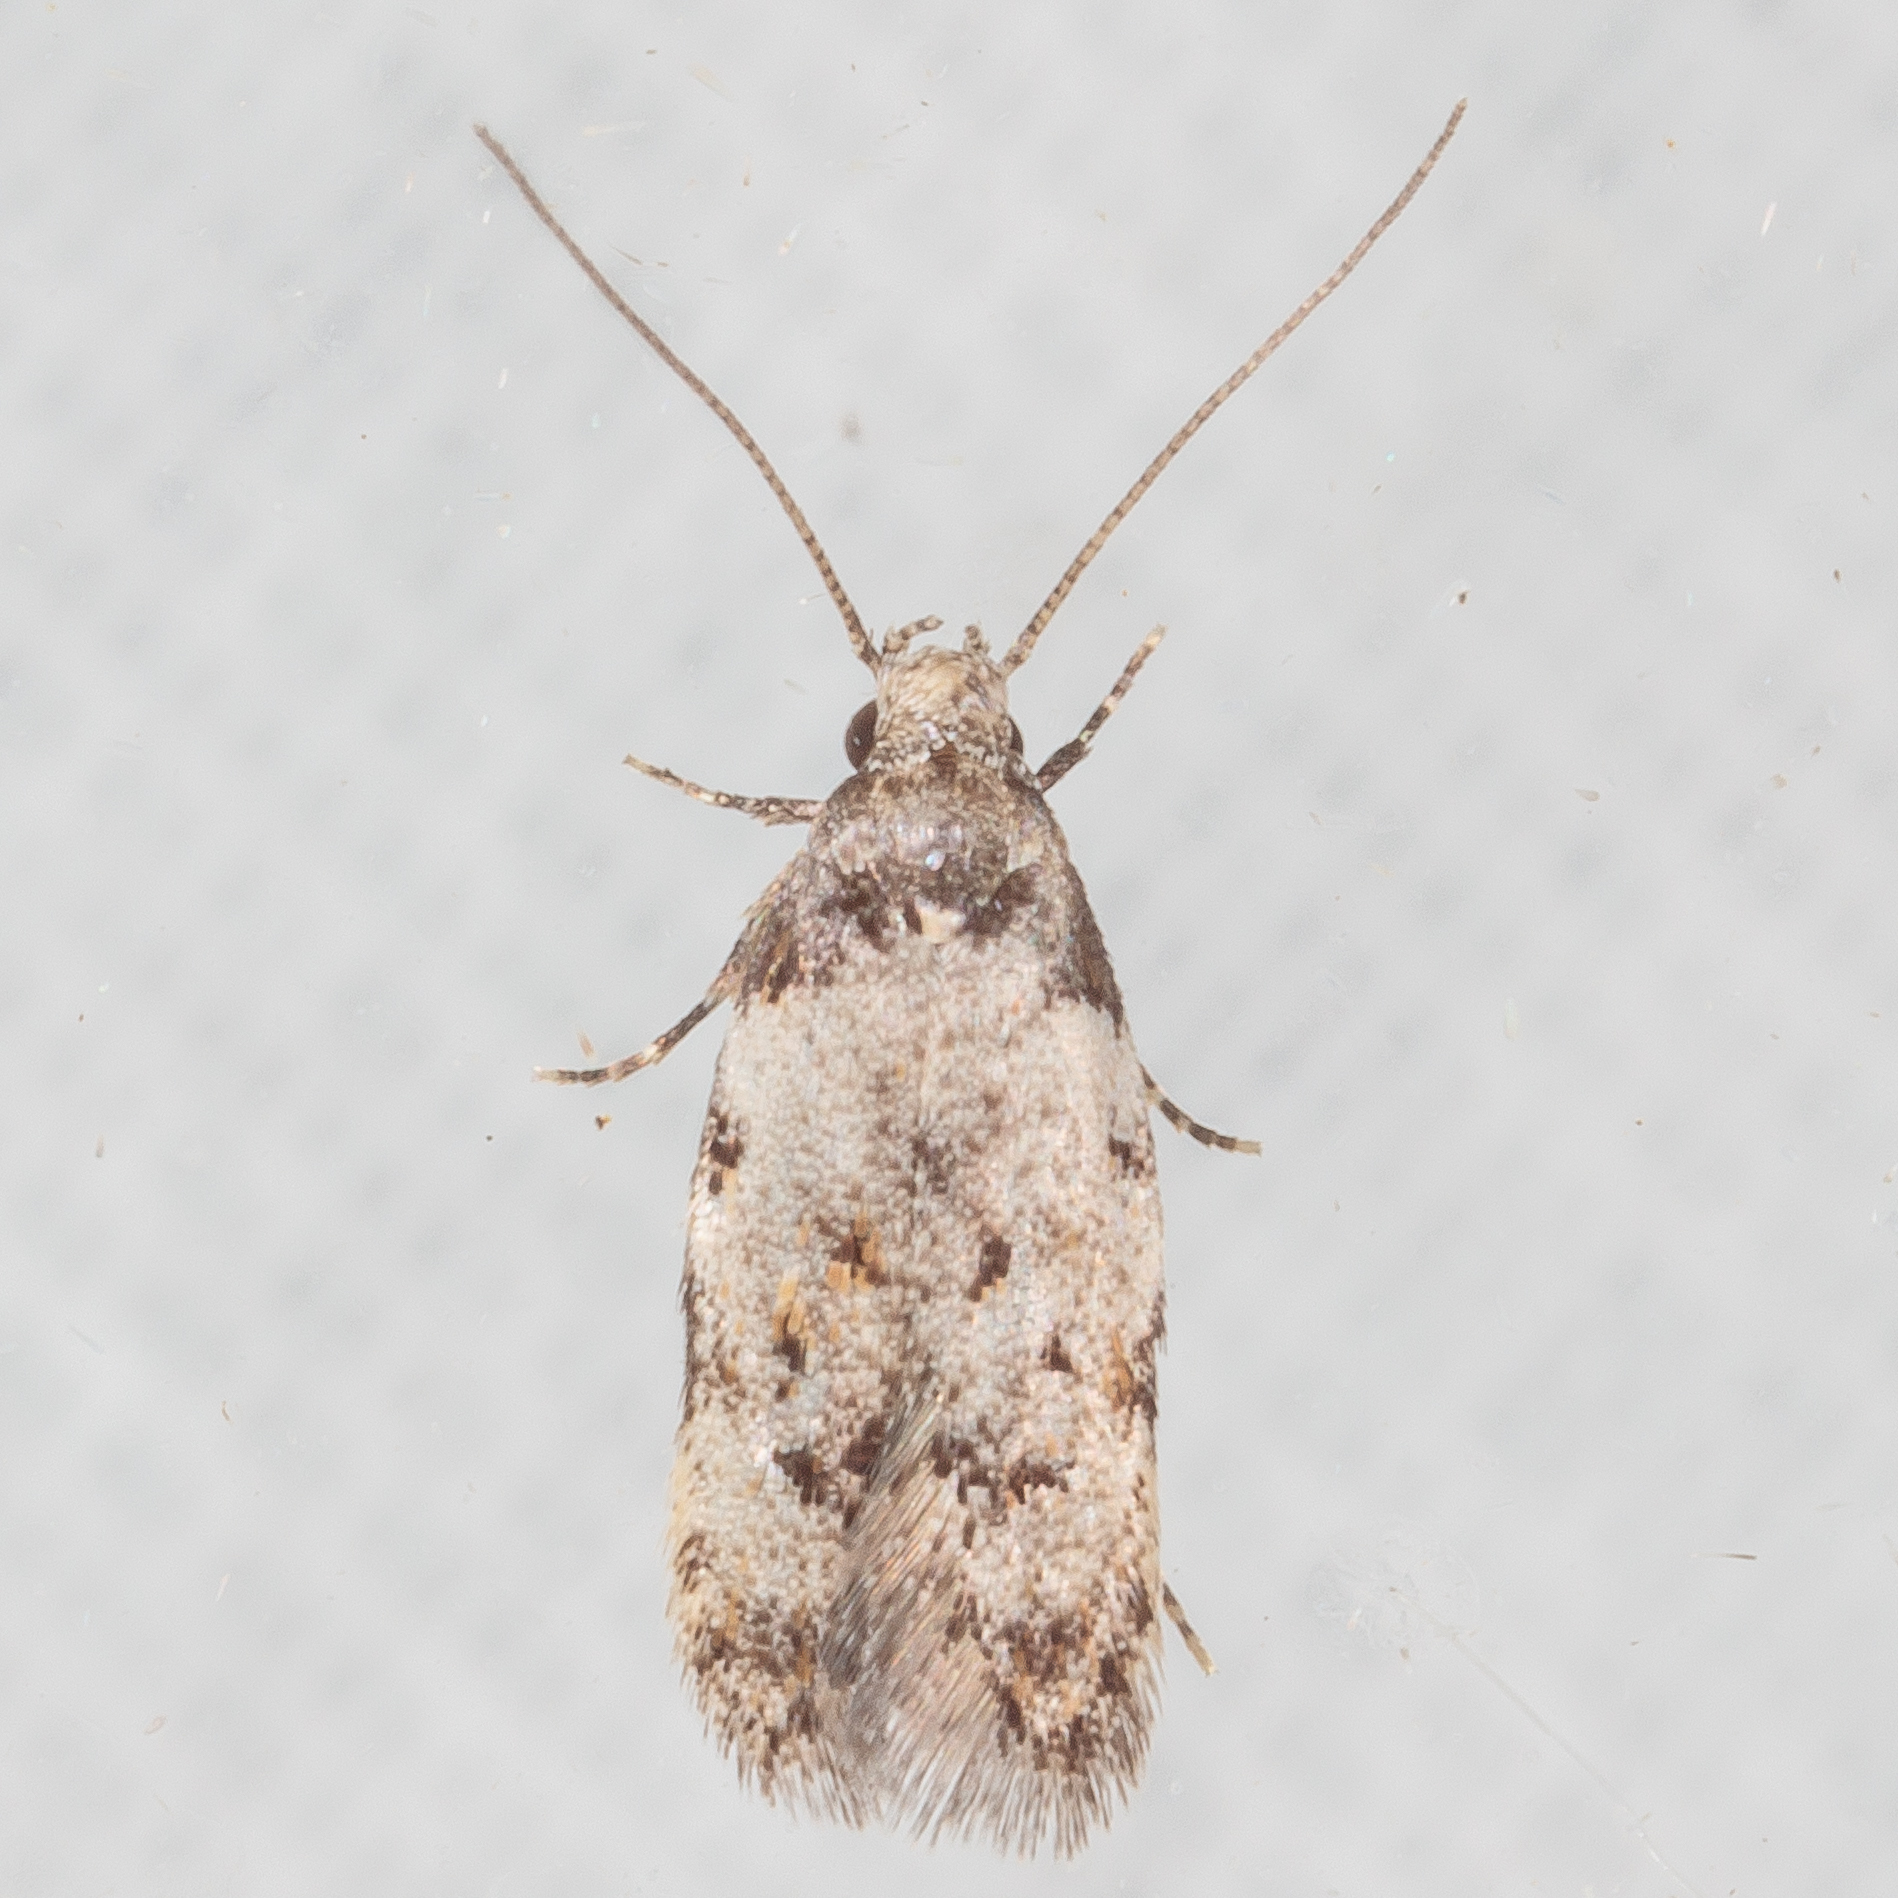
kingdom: Animalia
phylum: Arthropoda
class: Insecta
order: Lepidoptera
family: Autostichidae
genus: Taygete
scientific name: Taygete attributella
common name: Triangle-marked twirler moth
